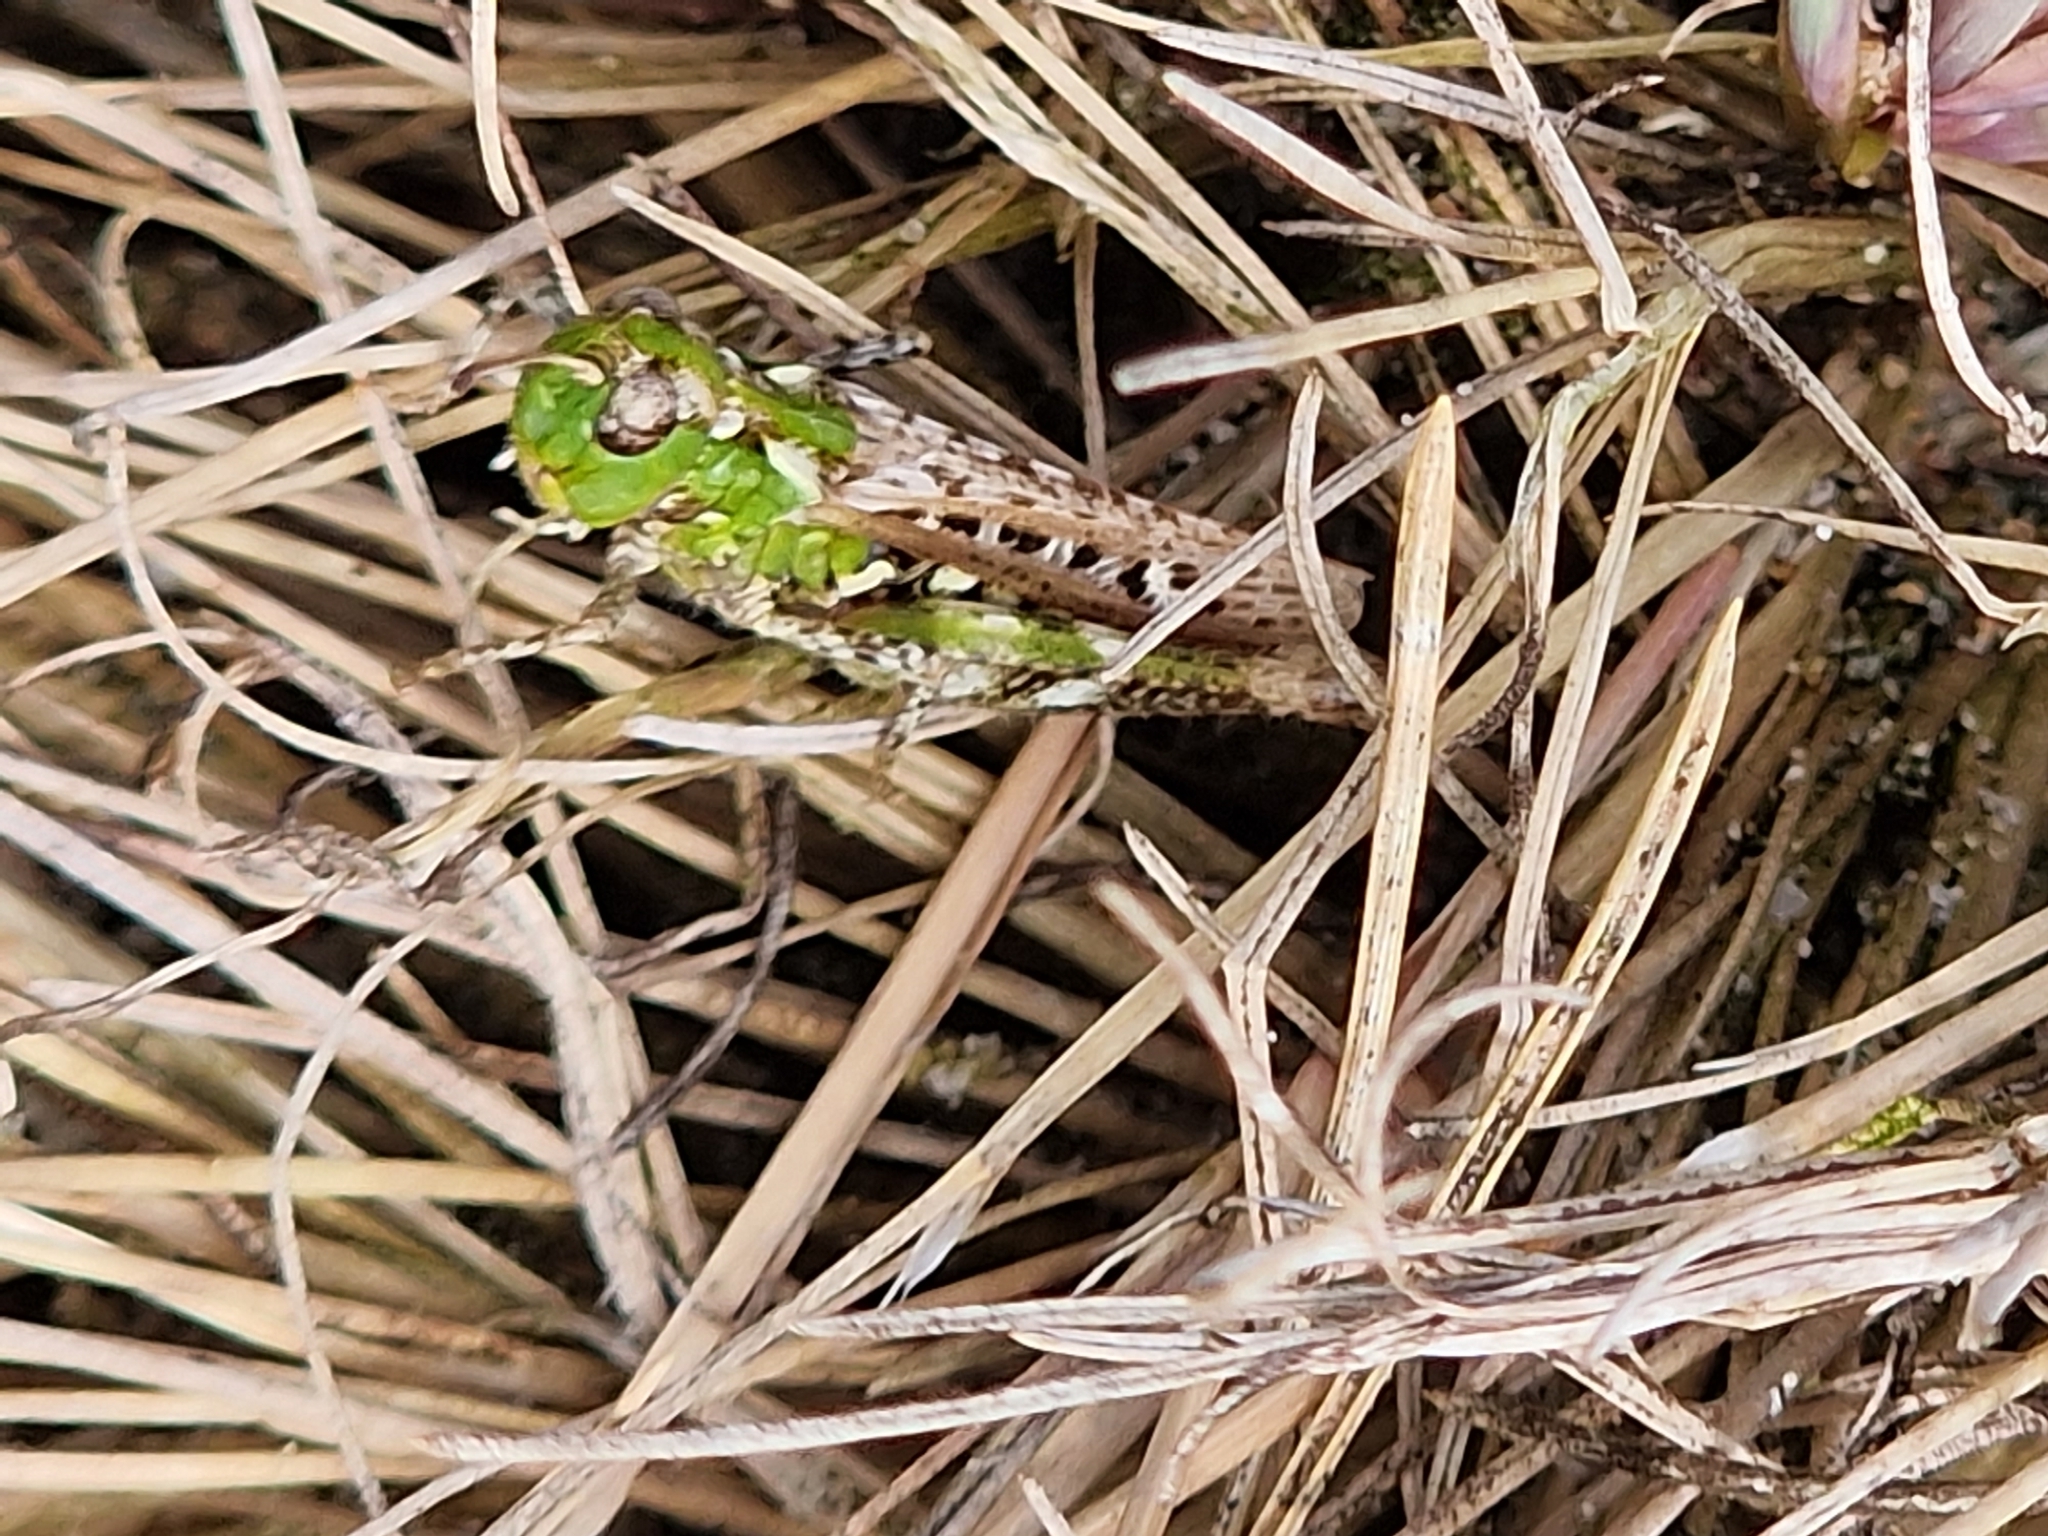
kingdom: Animalia
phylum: Arthropoda
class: Insecta
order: Orthoptera
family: Acrididae
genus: Myrmeleotettix
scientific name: Myrmeleotettix maculatus
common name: Mottled grasshopper
